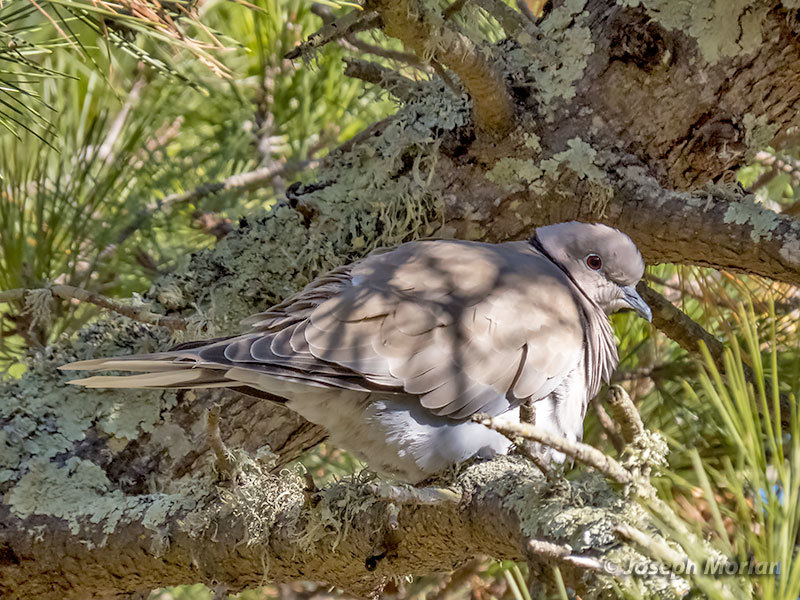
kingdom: Animalia
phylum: Chordata
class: Aves
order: Columbiformes
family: Columbidae
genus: Streptopelia
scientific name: Streptopelia decaocto
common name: Eurasian collared dove
